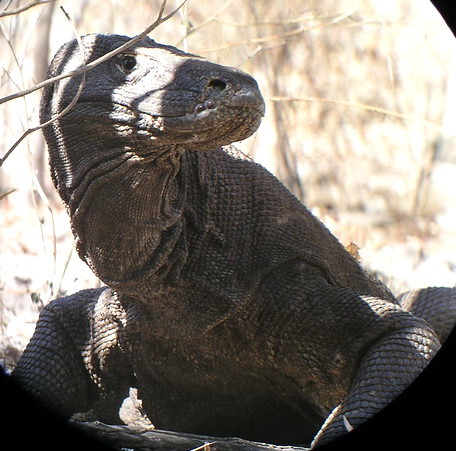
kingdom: Animalia
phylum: Chordata
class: Squamata
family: Varanidae
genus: Varanus
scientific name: Varanus komodoensis
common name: Komodo dragon
